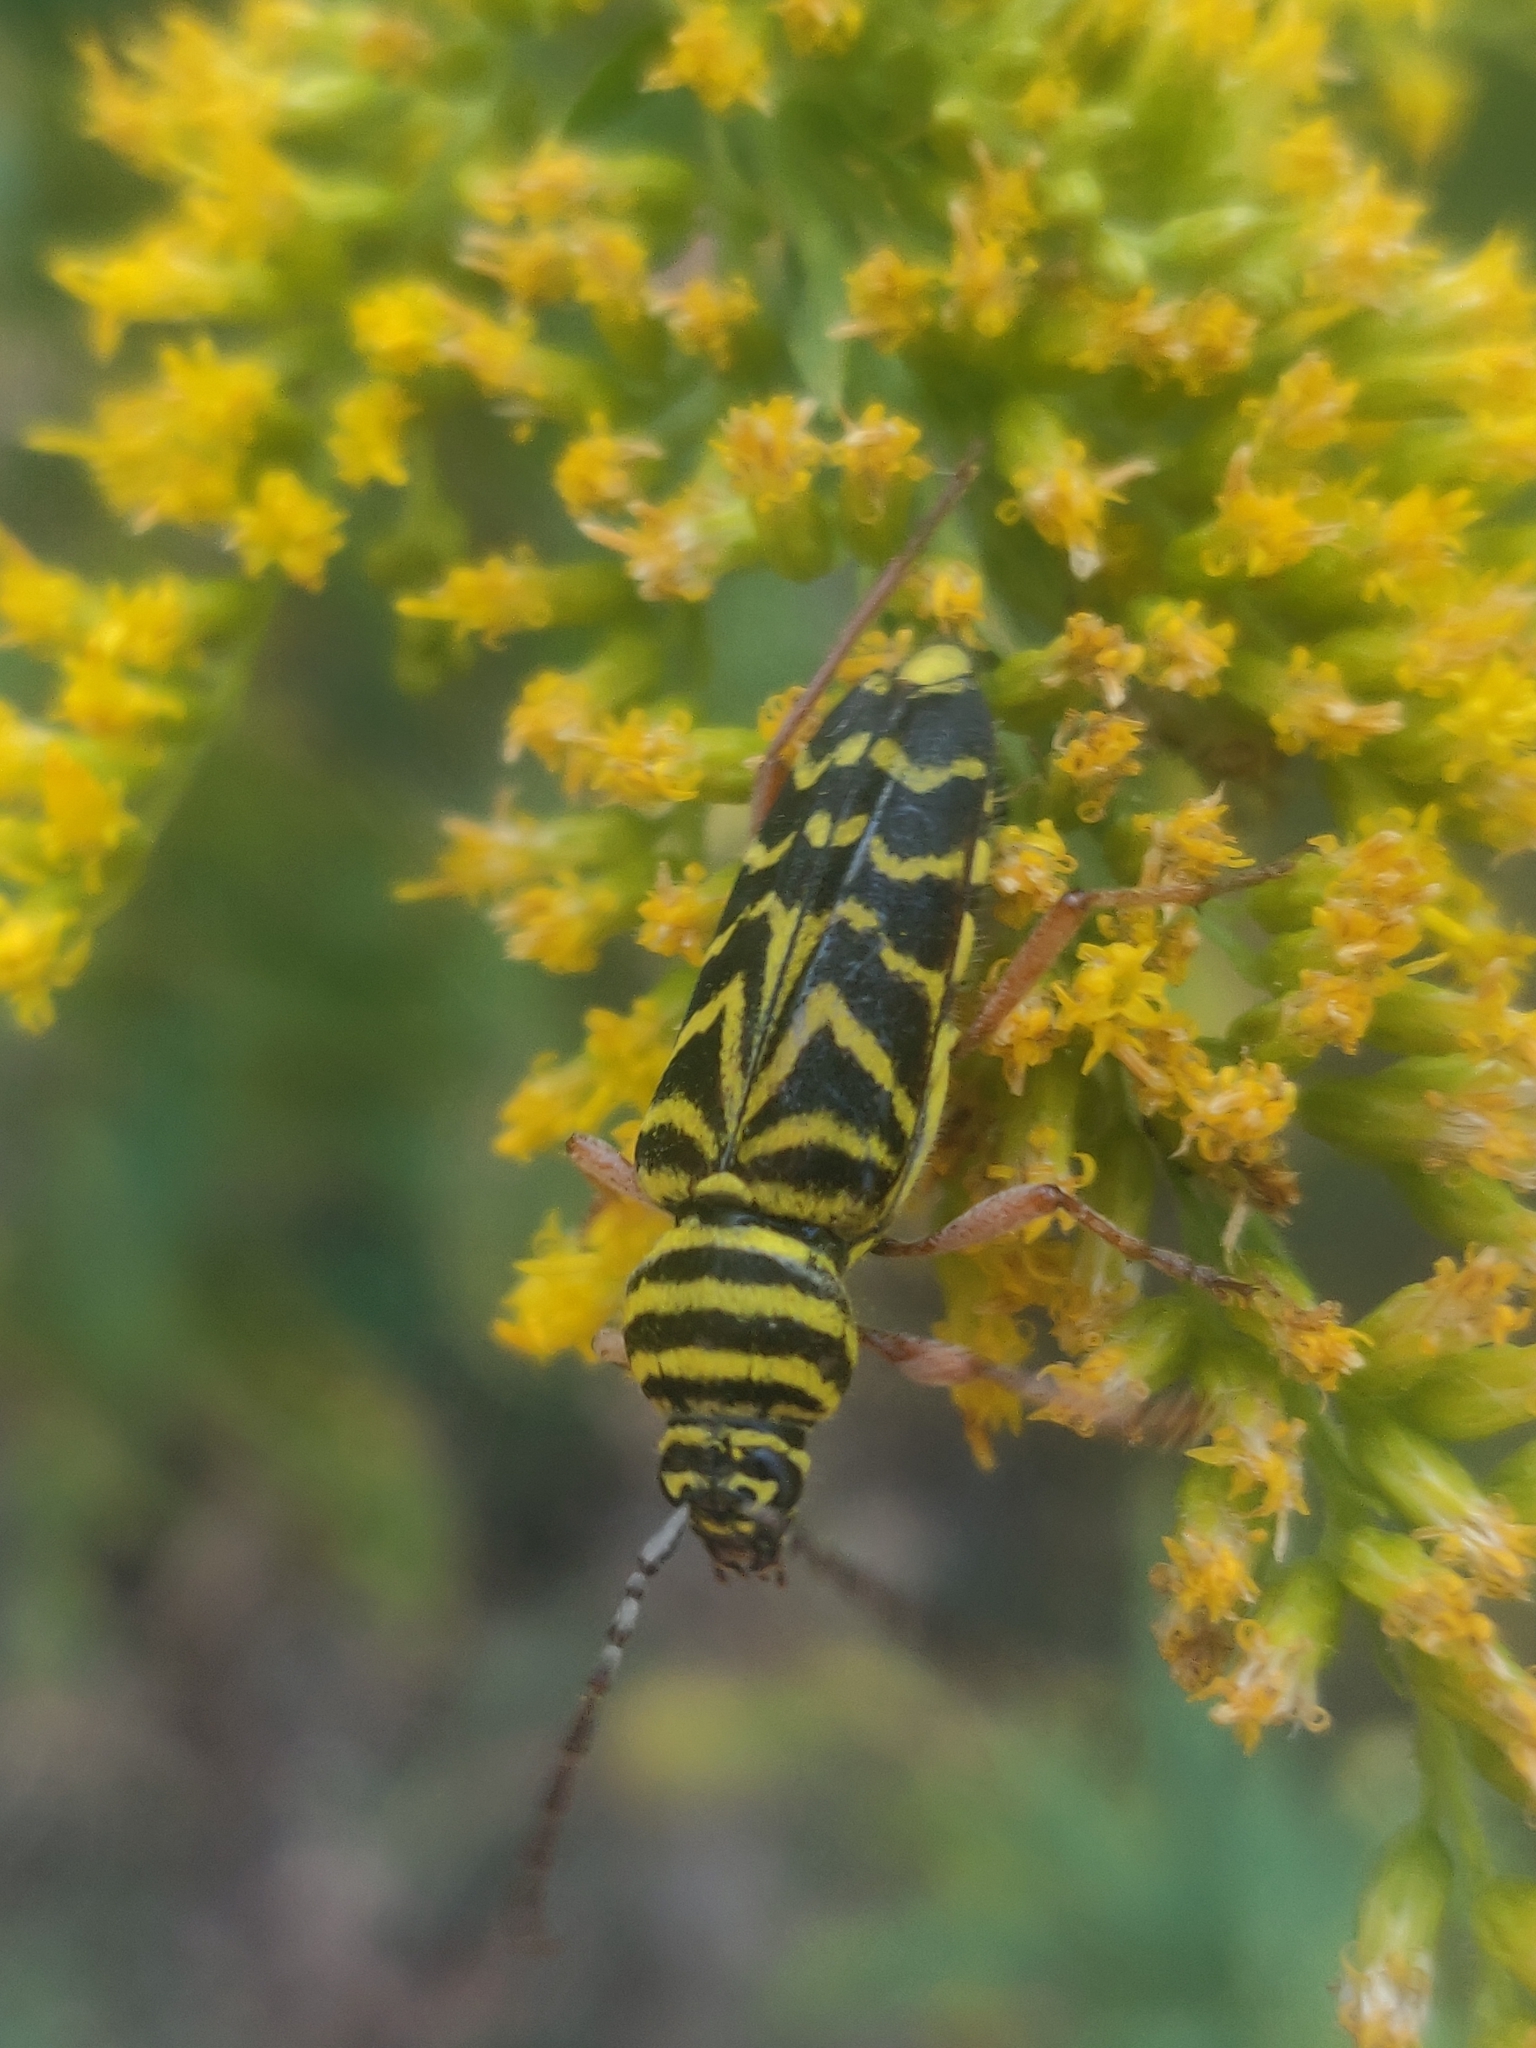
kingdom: Animalia
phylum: Arthropoda
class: Insecta
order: Coleoptera
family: Cerambycidae
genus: Megacyllene
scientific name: Megacyllene robiniae
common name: Locust borer
